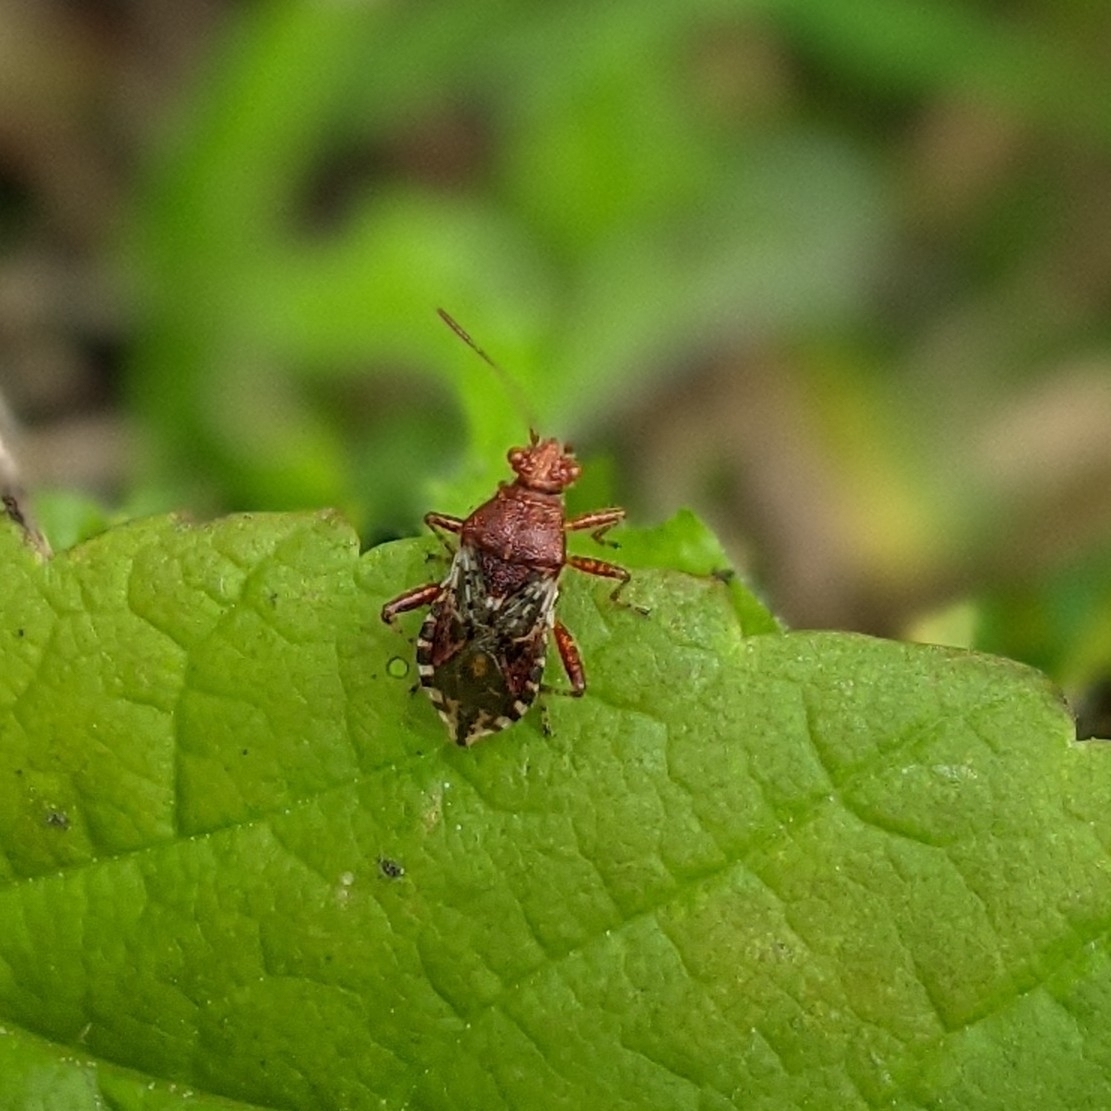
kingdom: Animalia
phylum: Arthropoda
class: Insecta
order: Hemiptera
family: Rhopalidae
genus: Rhopalus
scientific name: Rhopalus subrufus
